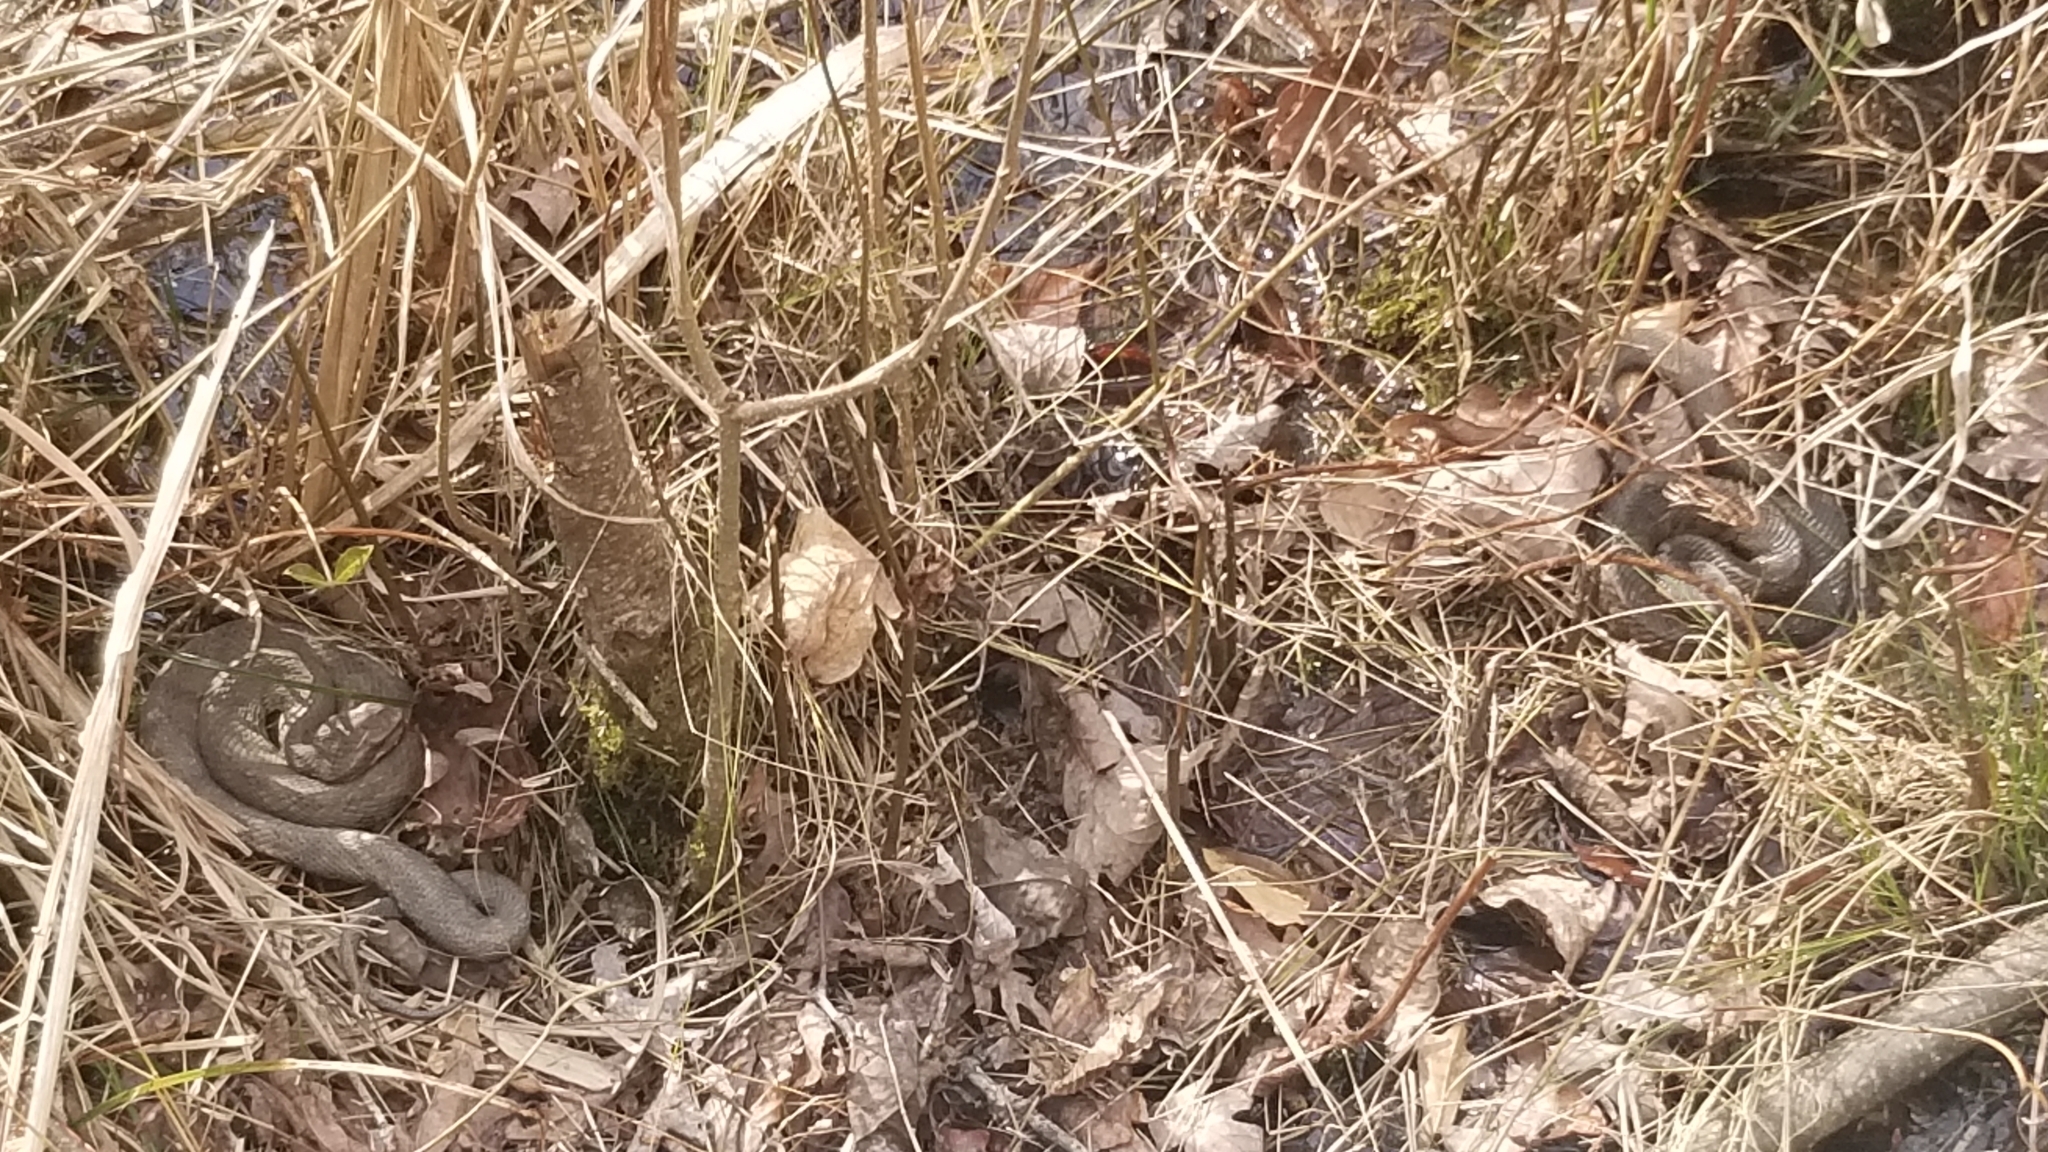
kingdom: Animalia
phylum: Chordata
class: Squamata
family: Viperidae
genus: Agkistrodon
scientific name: Agkistrodon piscivorus
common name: Cottonmouth
